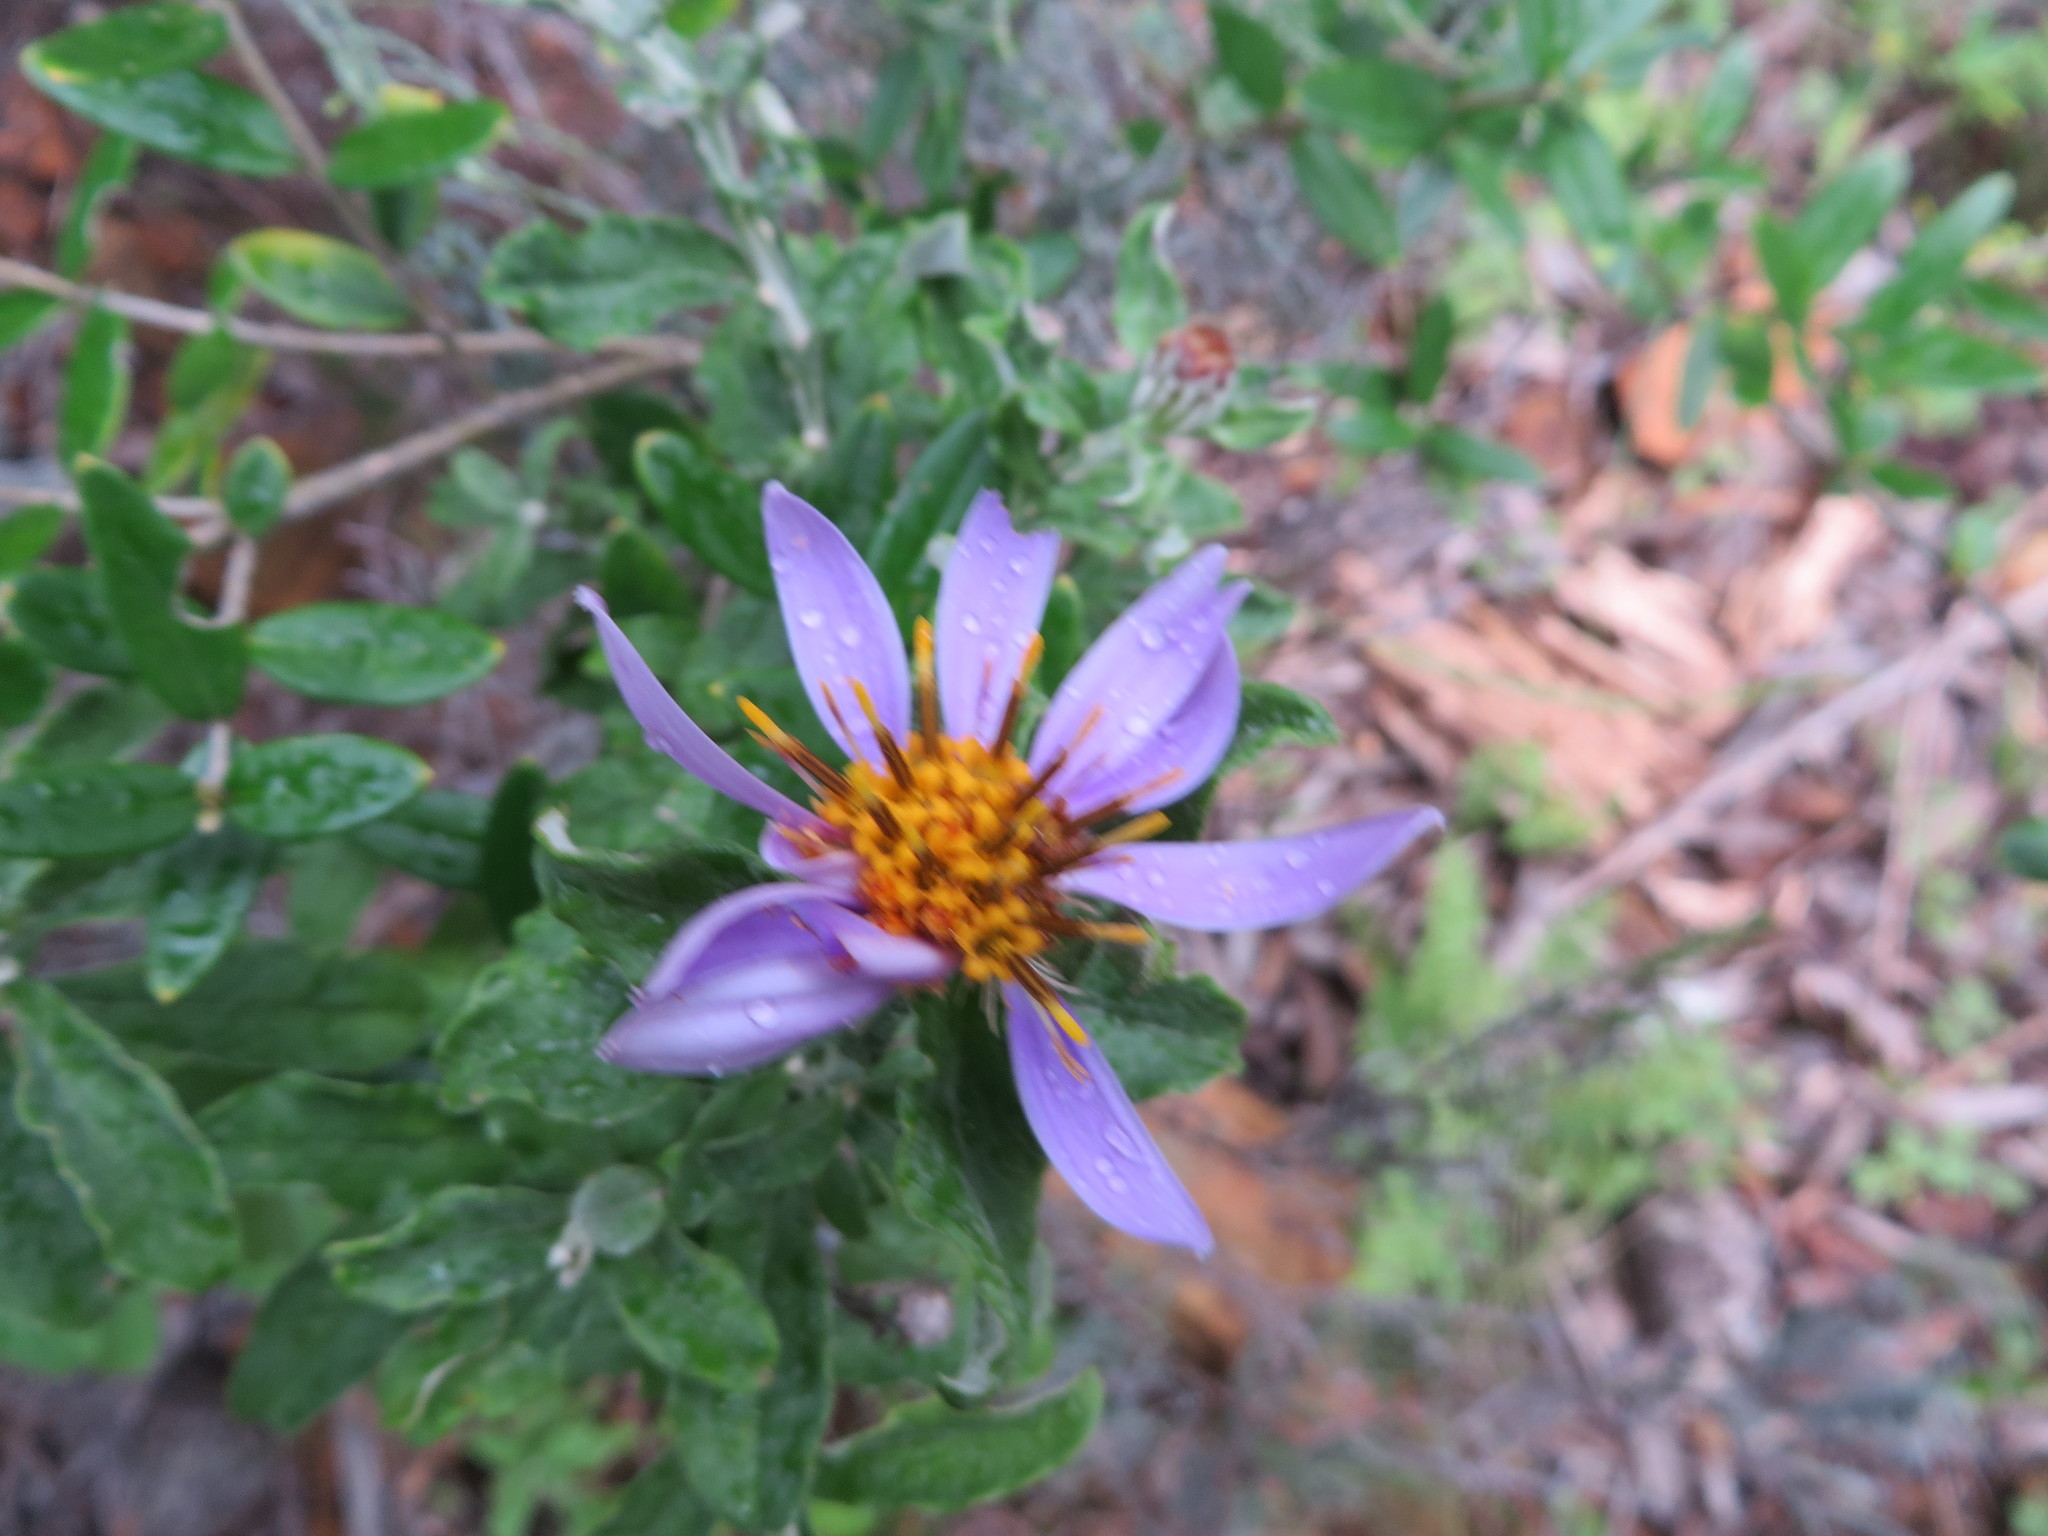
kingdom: Plantae
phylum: Tracheophyta
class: Magnoliopsida
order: Asterales
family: Asteraceae
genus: Printzia
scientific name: Printzia polifolia
